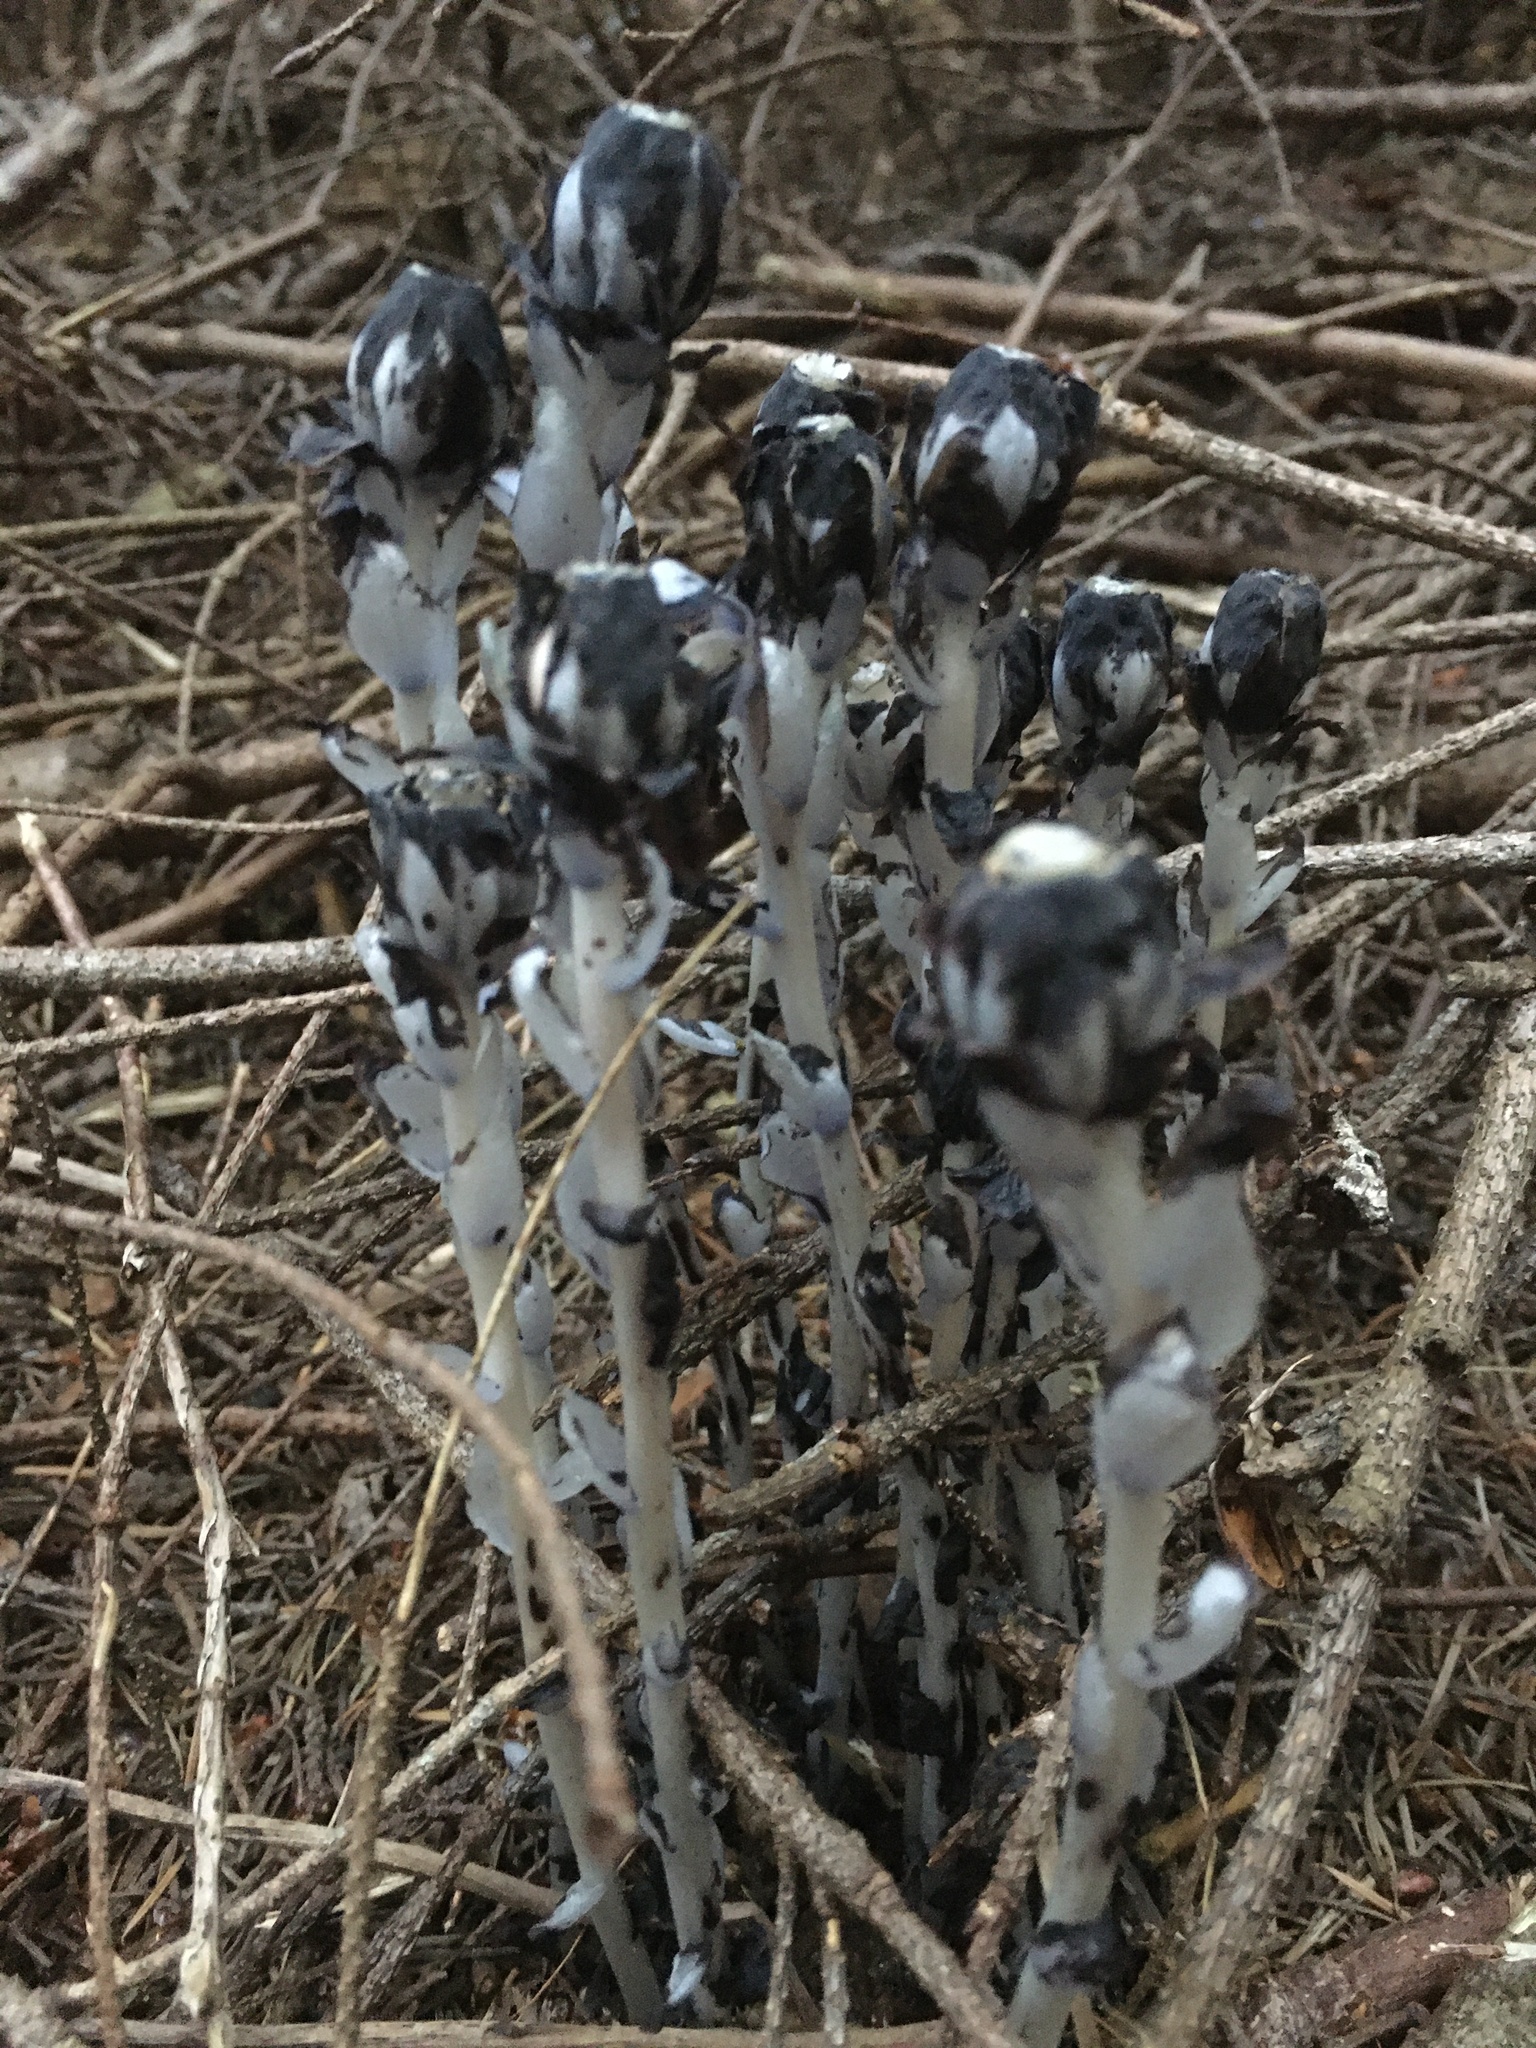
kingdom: Plantae
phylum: Tracheophyta
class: Magnoliopsida
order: Ericales
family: Ericaceae
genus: Monotropa
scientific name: Monotropa uniflora
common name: Convulsion root
